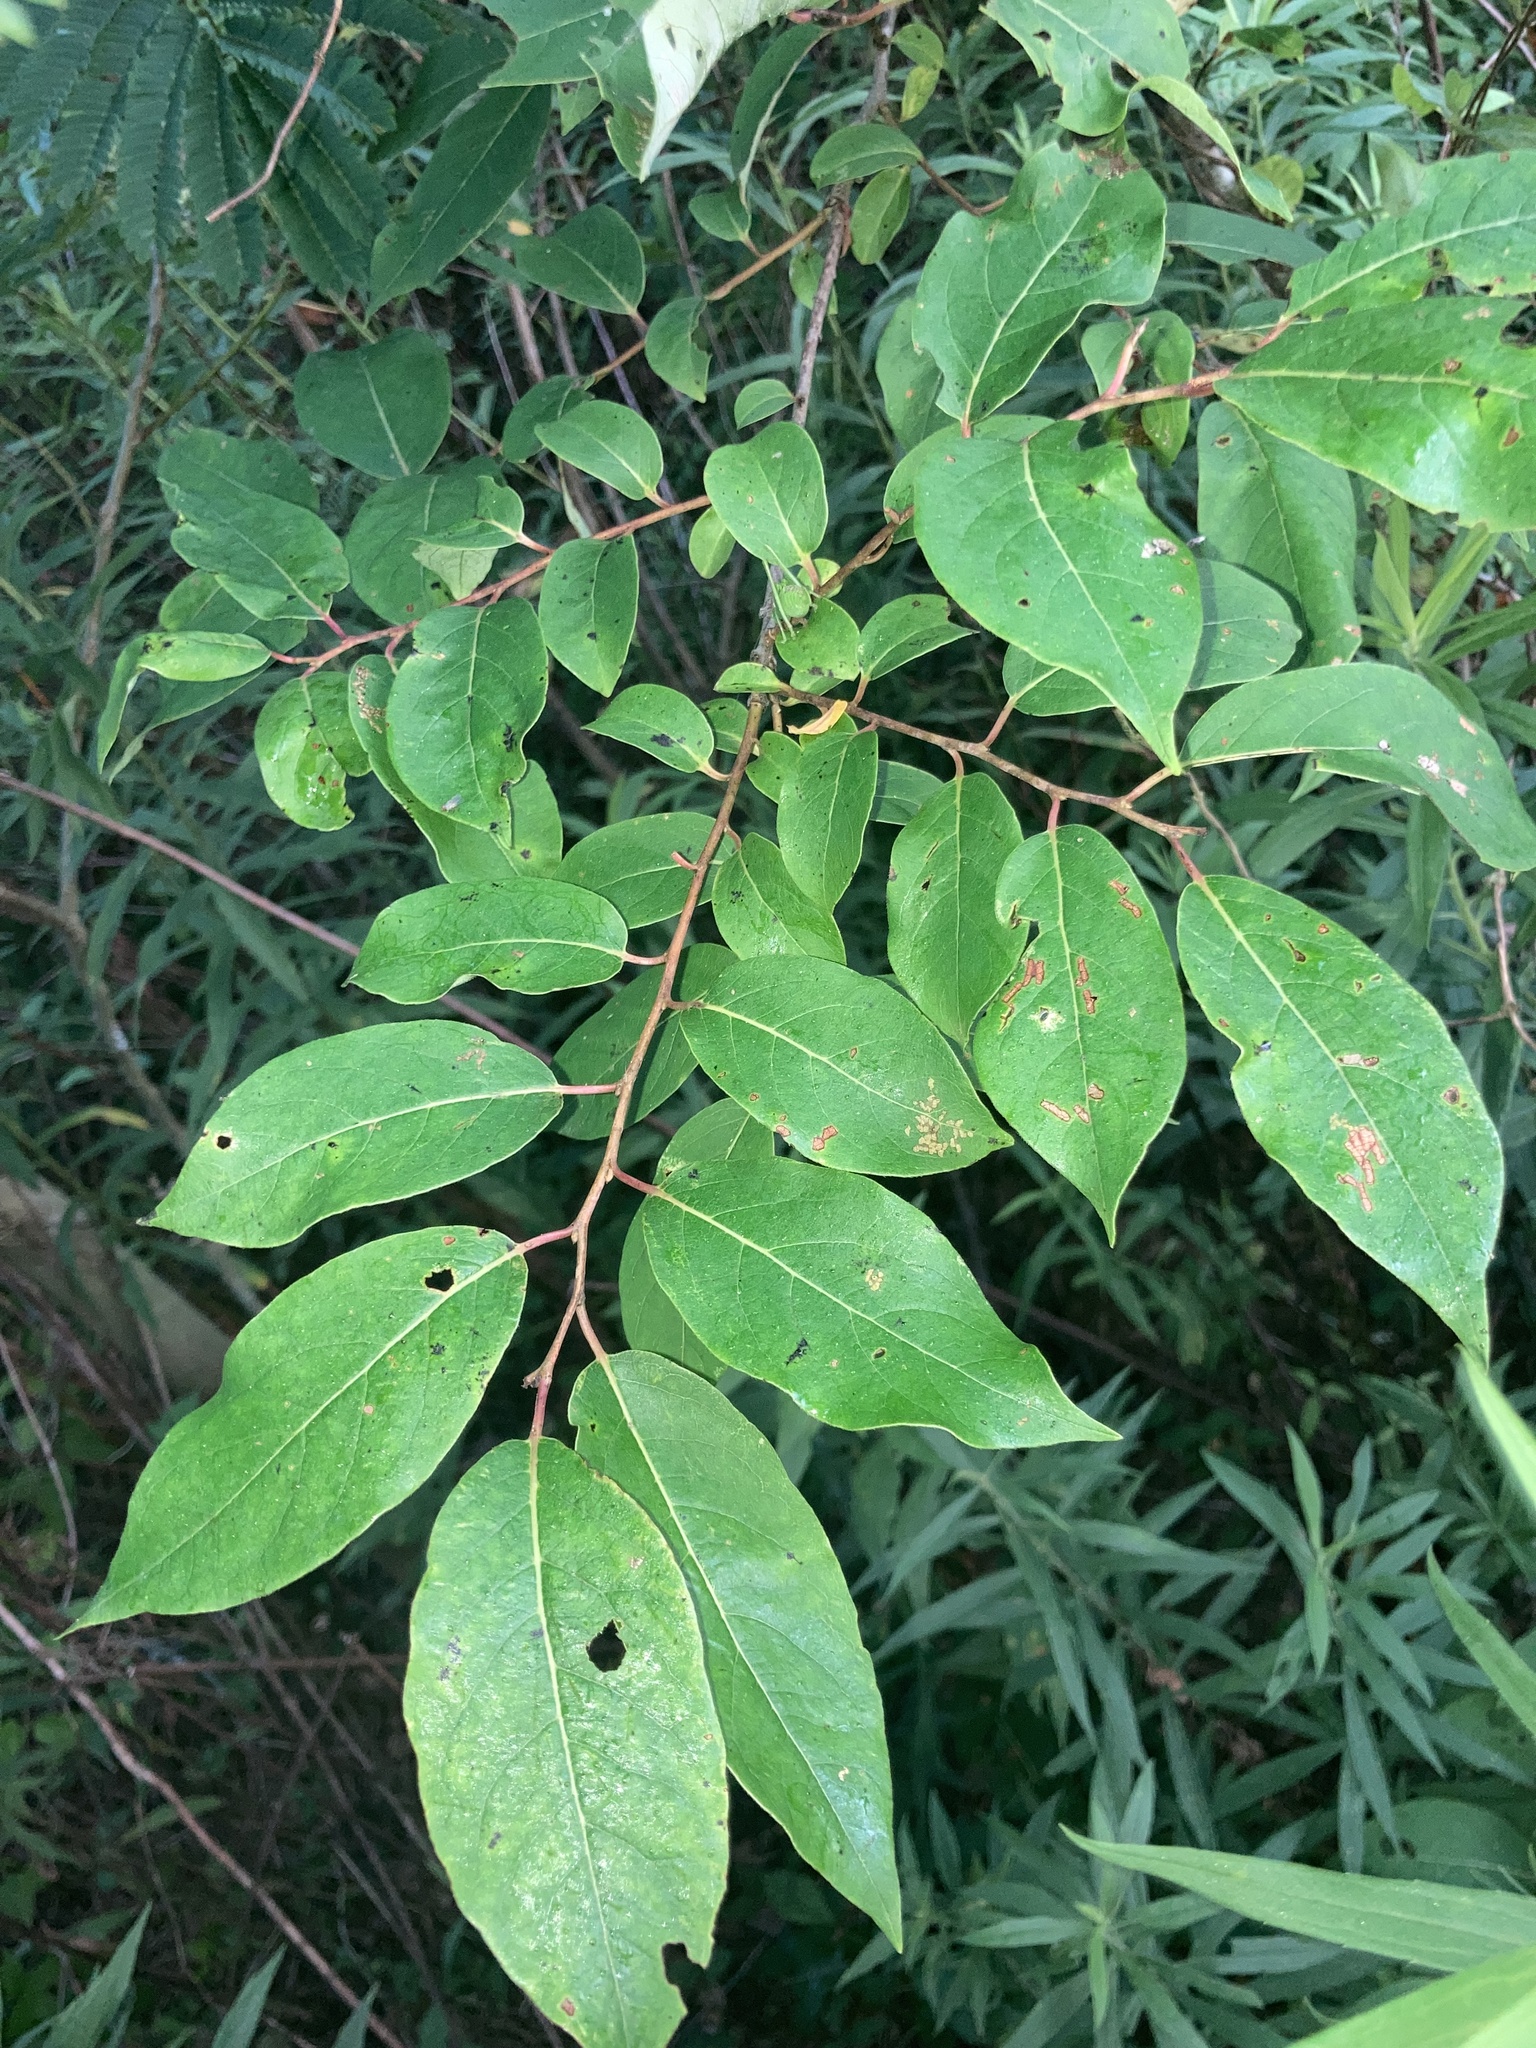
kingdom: Plantae
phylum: Tracheophyta
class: Magnoliopsida
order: Ericales
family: Ebenaceae
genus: Diospyros
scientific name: Diospyros virginiana
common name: Persimmon
